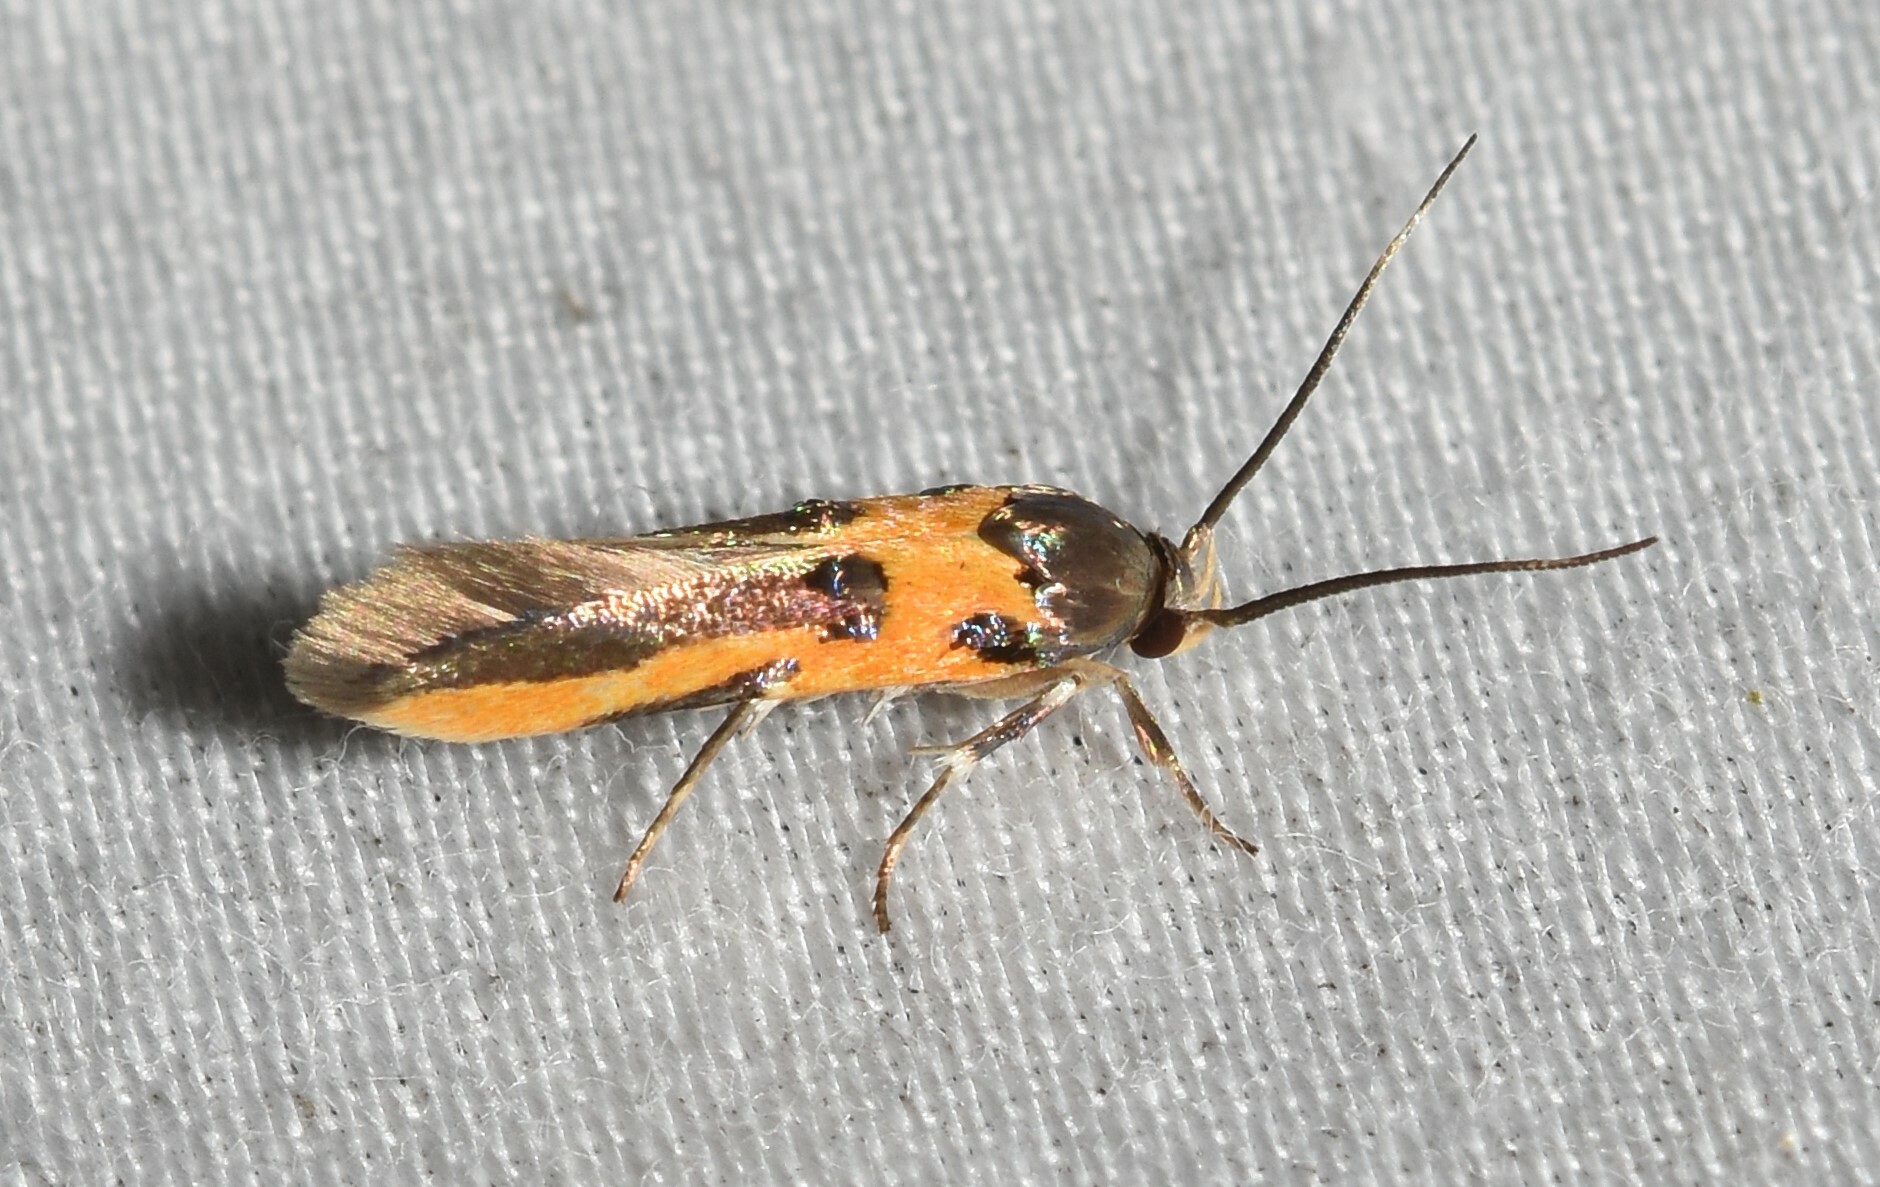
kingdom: Animalia
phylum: Arthropoda
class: Insecta
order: Lepidoptera
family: Cosmopterigidae
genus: Euclemensia
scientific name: Euclemensia bassettella
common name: Kermes scale moth
